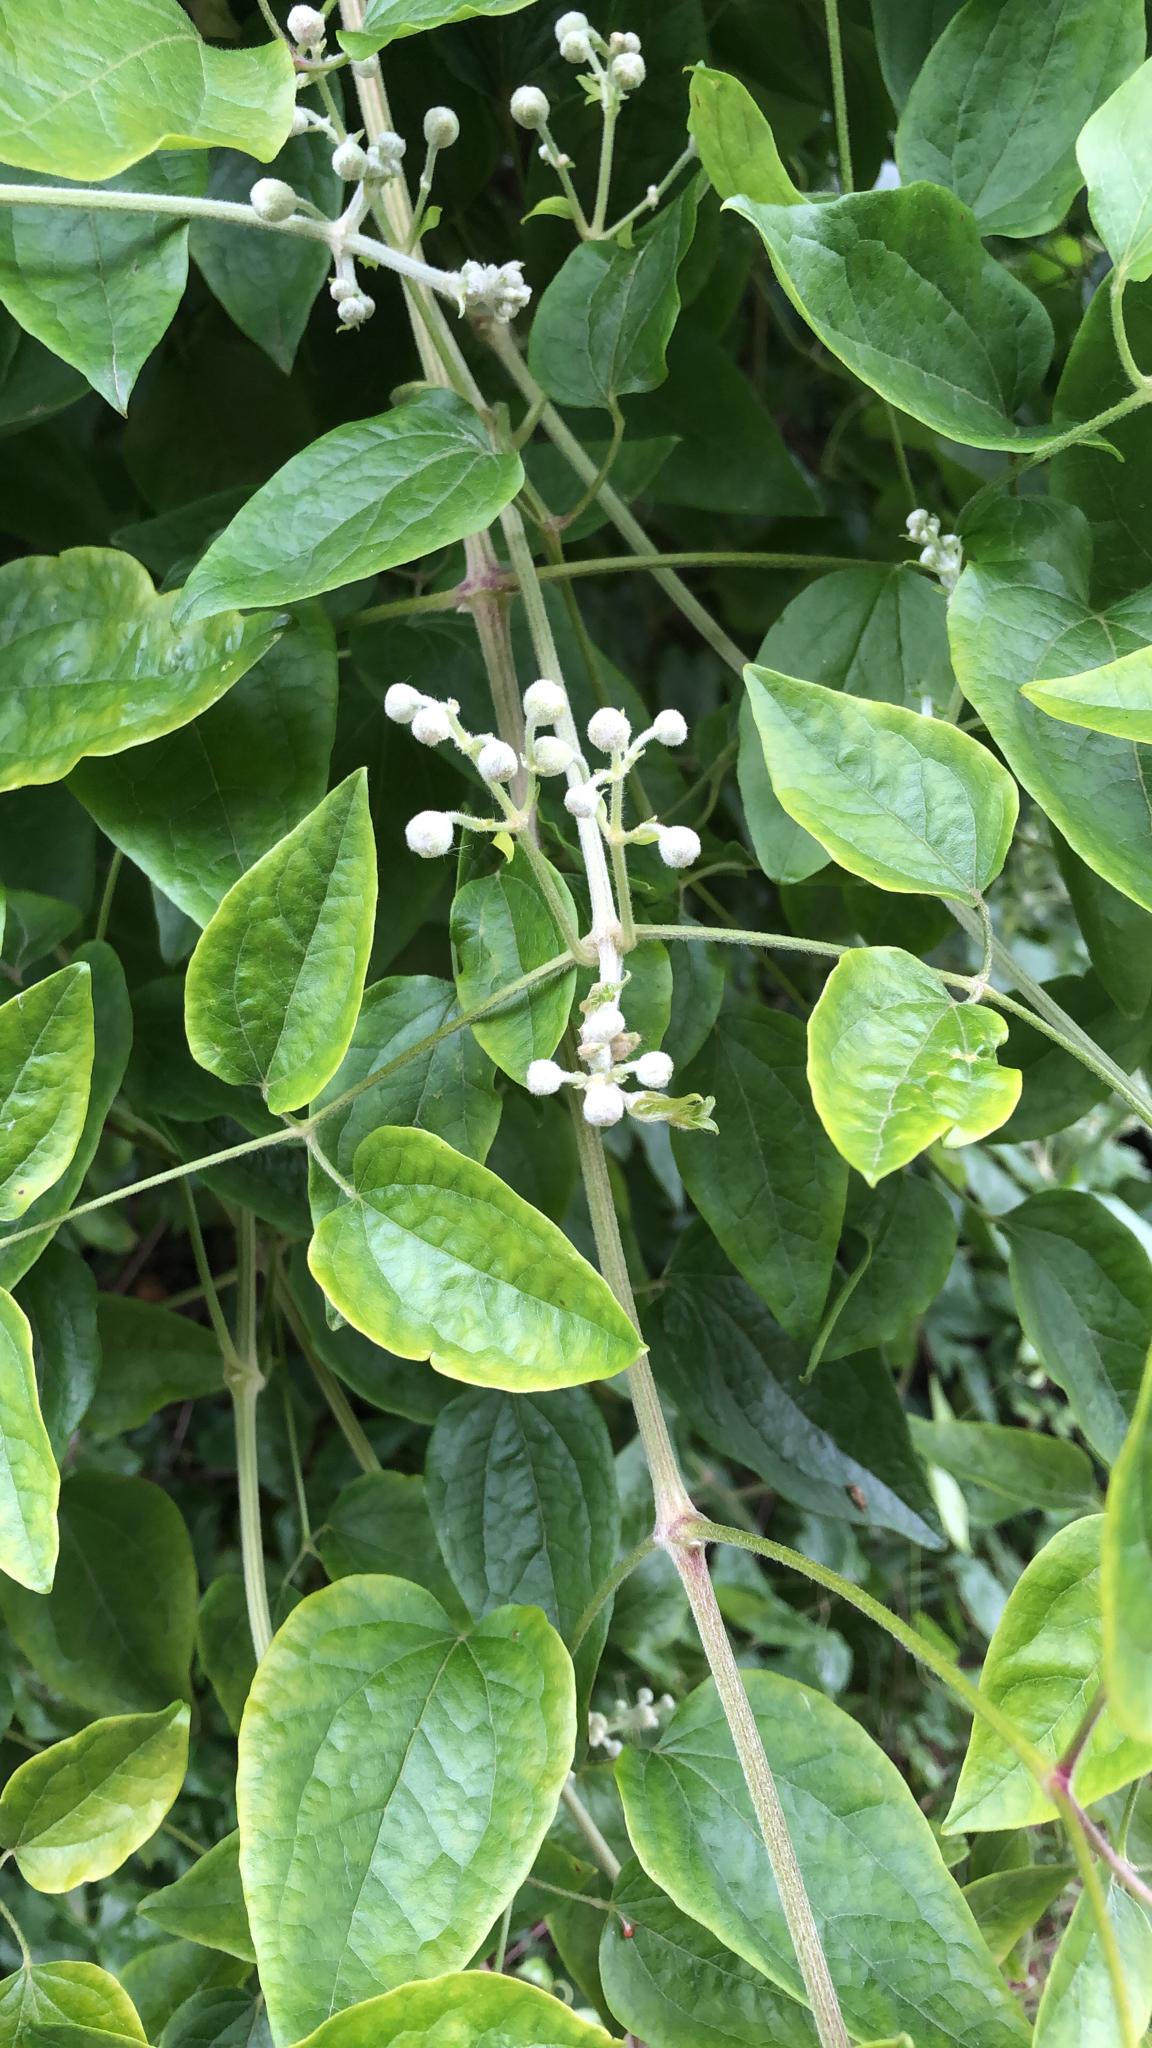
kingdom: Plantae
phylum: Tracheophyta
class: Magnoliopsida
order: Ranunculales
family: Ranunculaceae
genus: Clematis
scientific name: Clematis vitalba
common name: Evergreen clematis
